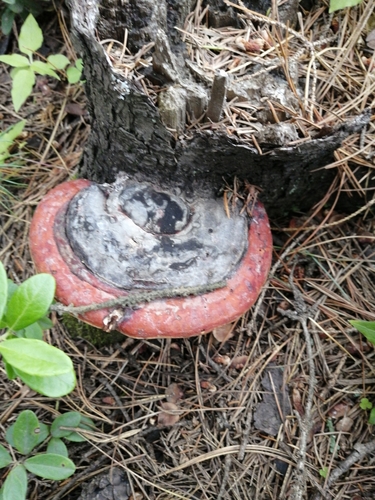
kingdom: Fungi
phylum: Basidiomycota
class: Agaricomycetes
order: Polyporales
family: Fomitopsidaceae
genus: Fomitopsis
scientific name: Fomitopsis pinicola
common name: Red-belted bracket
